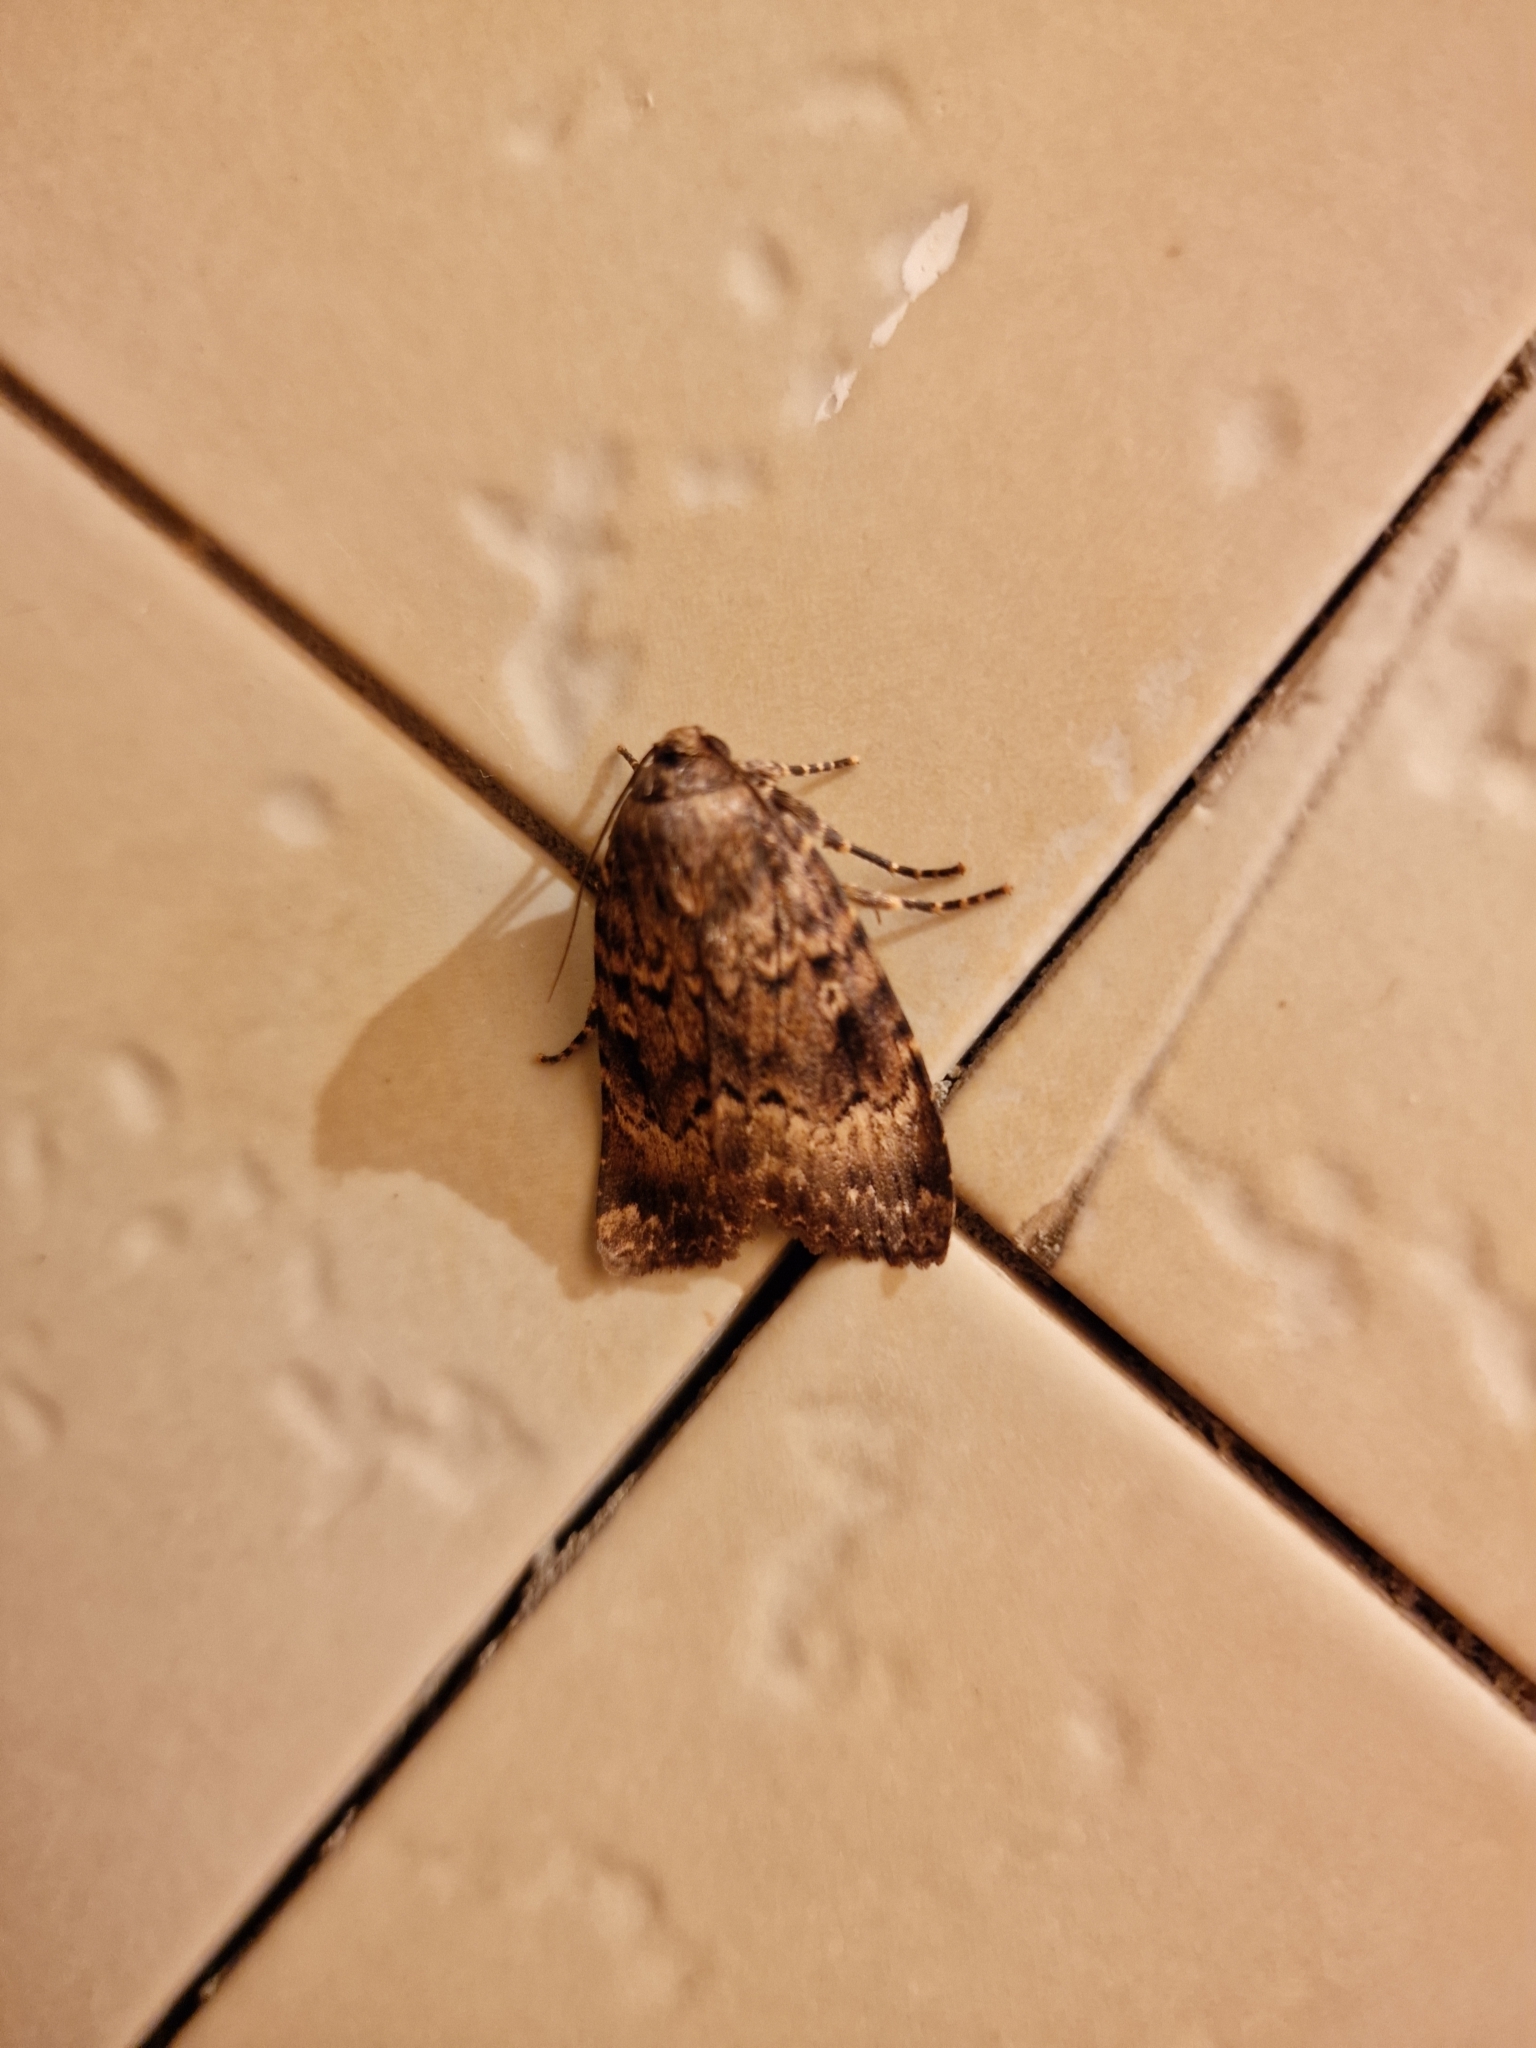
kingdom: Animalia
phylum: Arthropoda
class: Insecta
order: Lepidoptera
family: Noctuidae
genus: Amphipyra
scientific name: Amphipyra berbera
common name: Svensson's copper underwing
